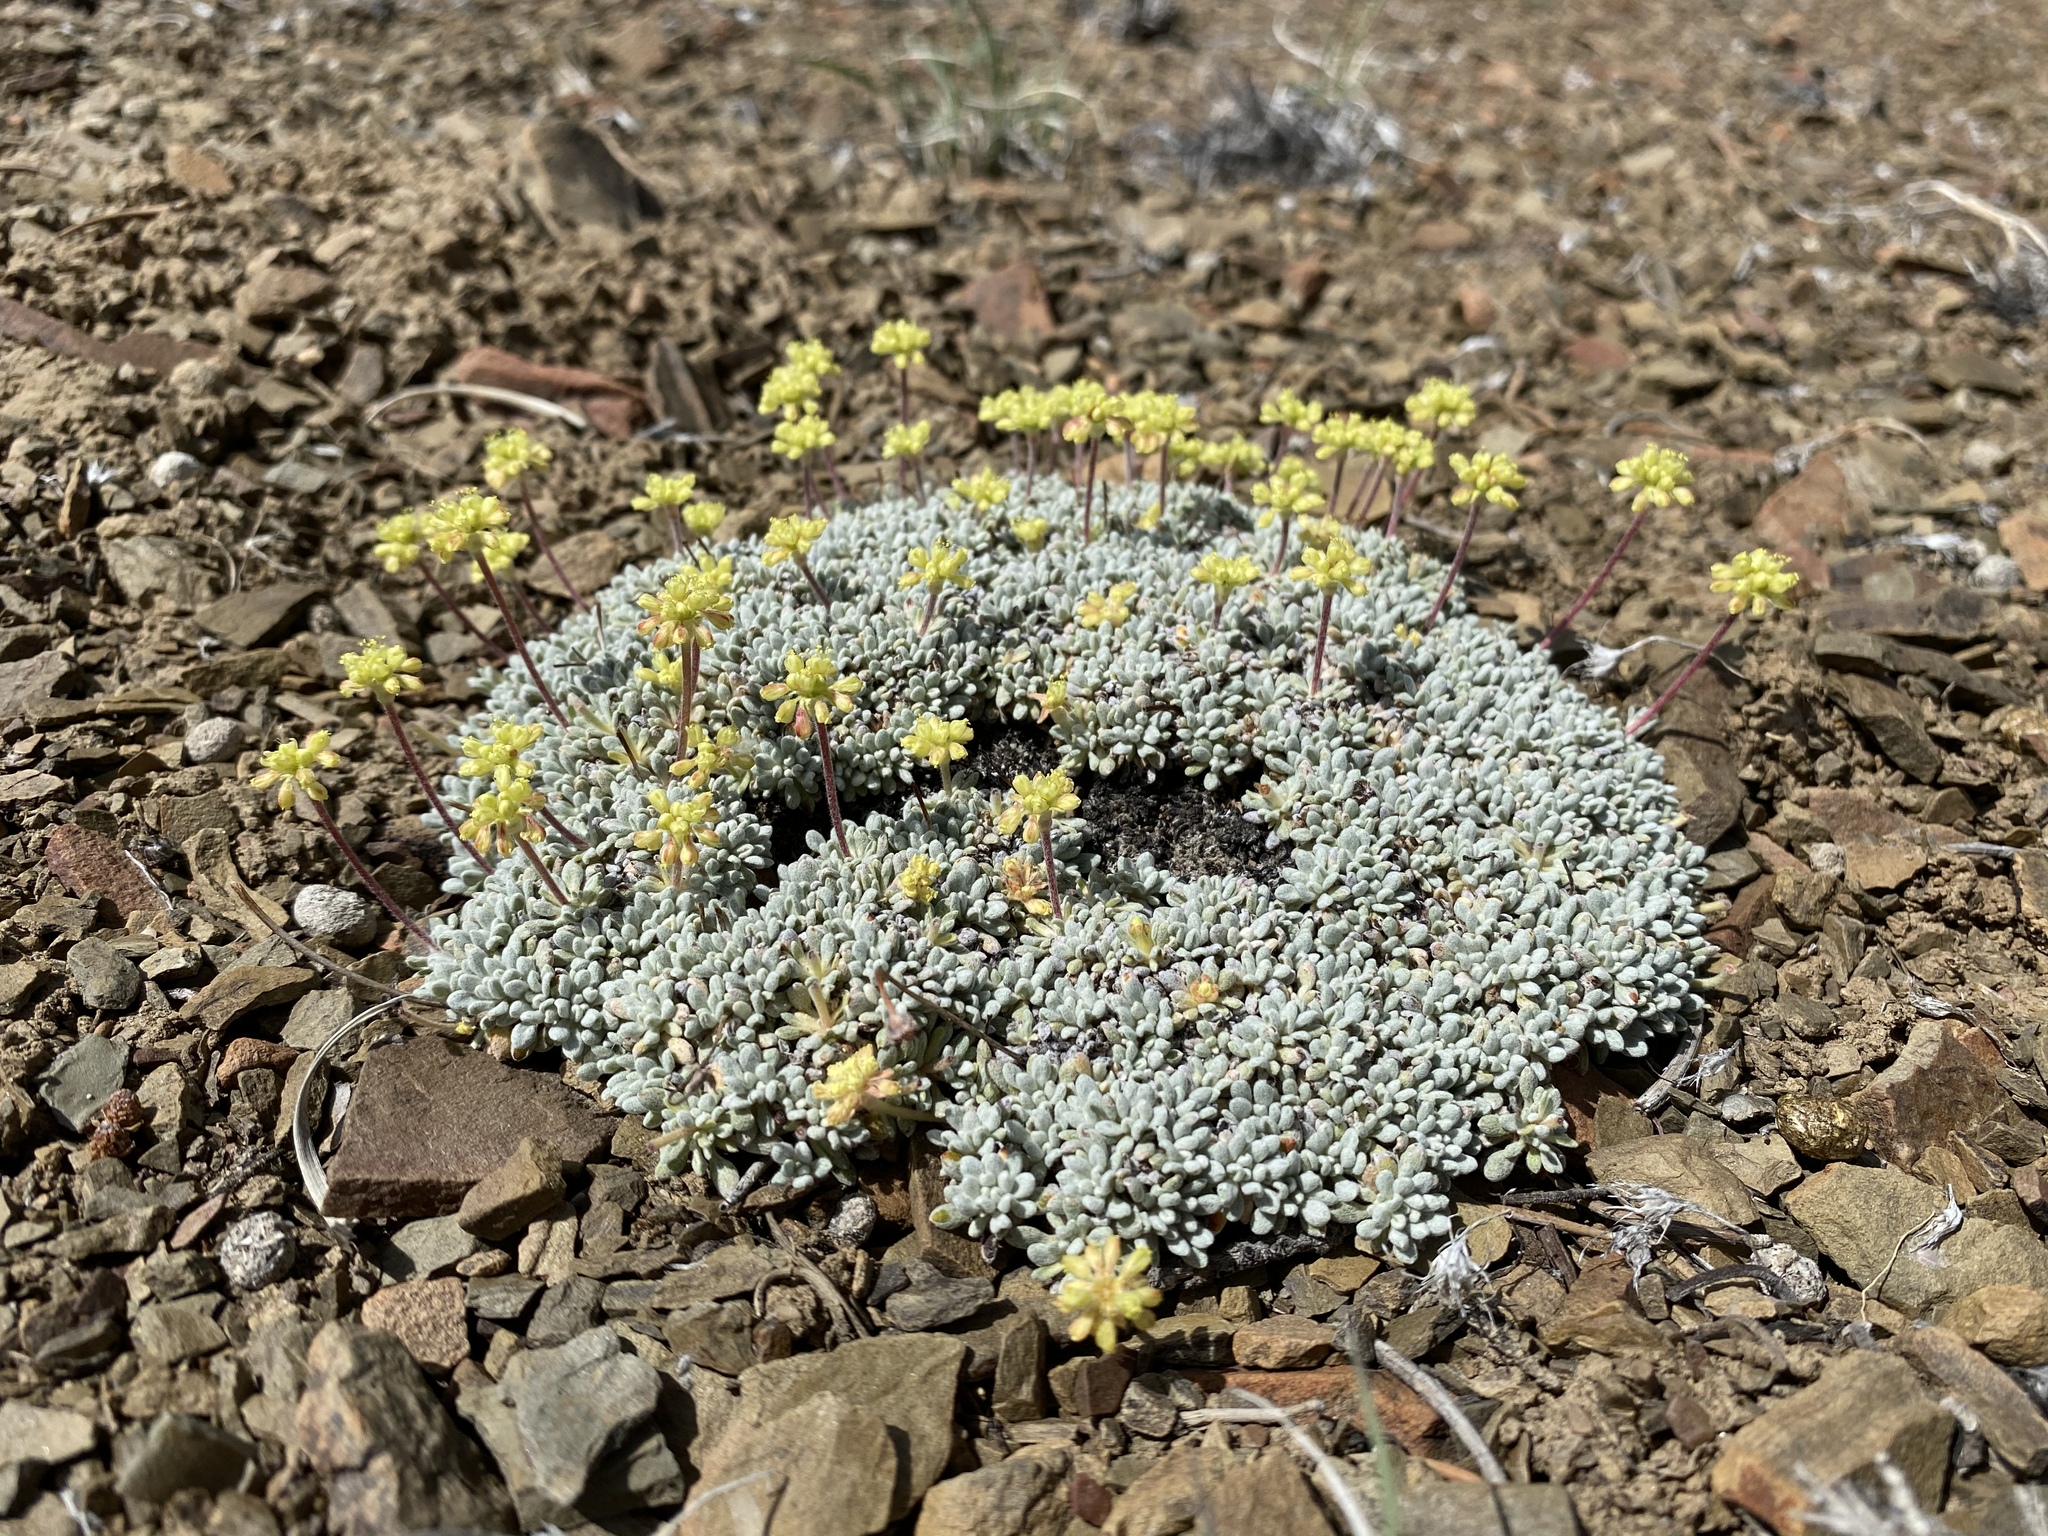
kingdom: Plantae
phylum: Tracheophyta
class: Magnoliopsida
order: Caryophyllales
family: Polygonaceae
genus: Eriogonum
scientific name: Eriogonum caespitosum
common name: Matted wild buckwheat
